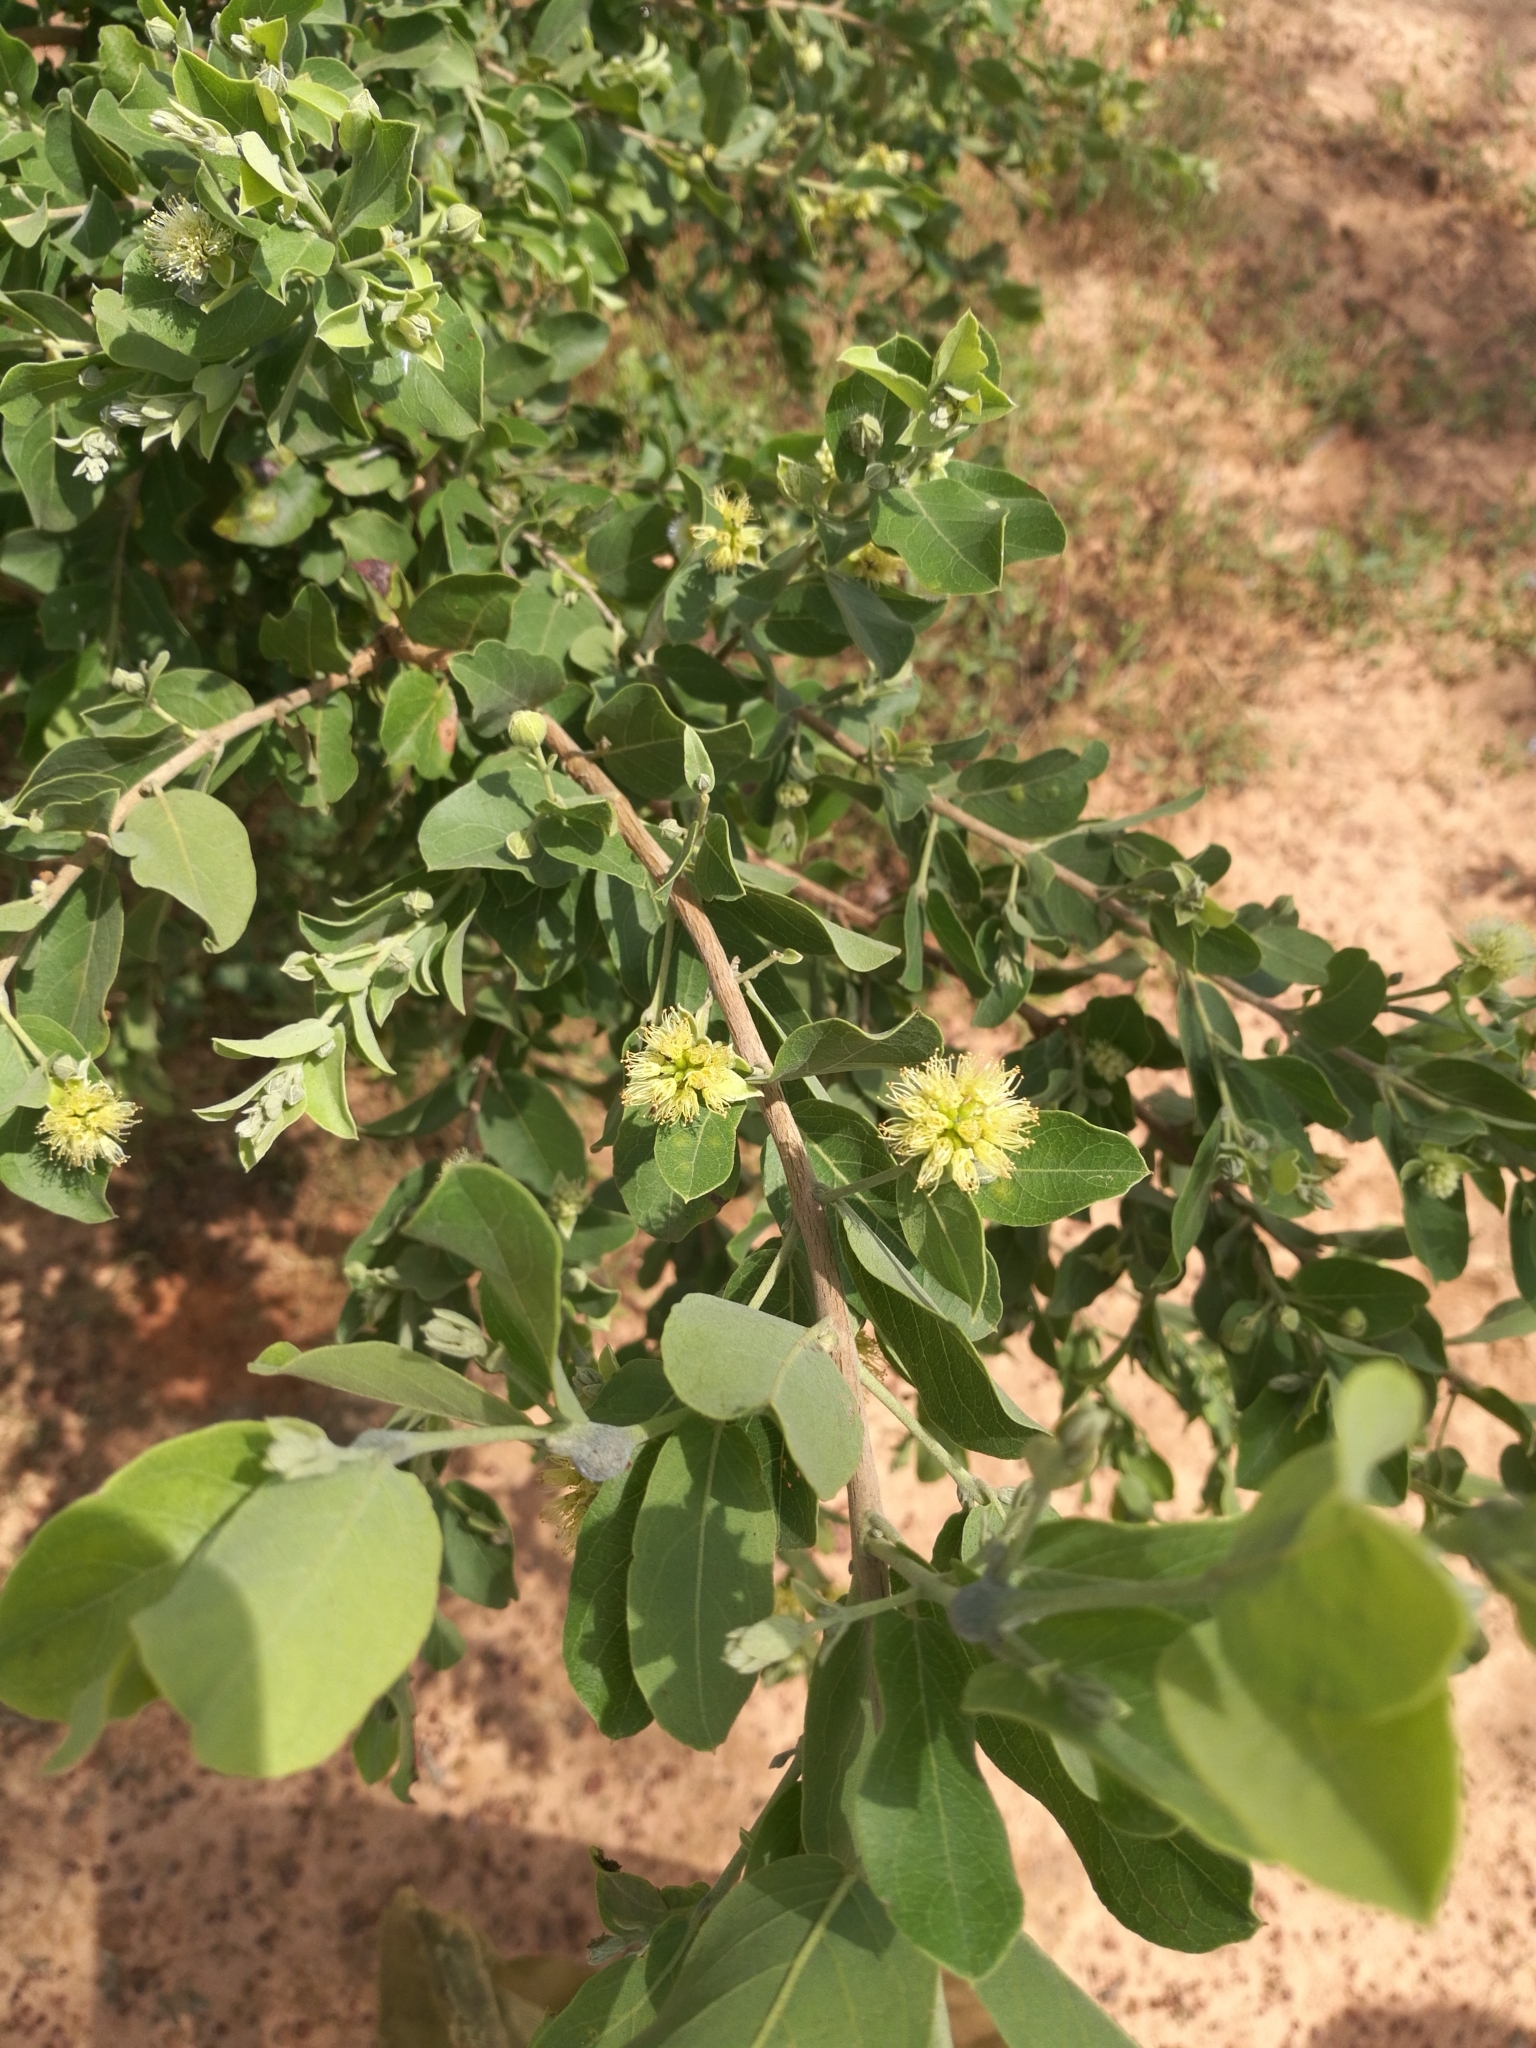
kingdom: Plantae
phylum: Tracheophyta
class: Magnoliopsida
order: Myrtales
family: Combretaceae
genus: Guiera
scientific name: Guiera senegalensis
